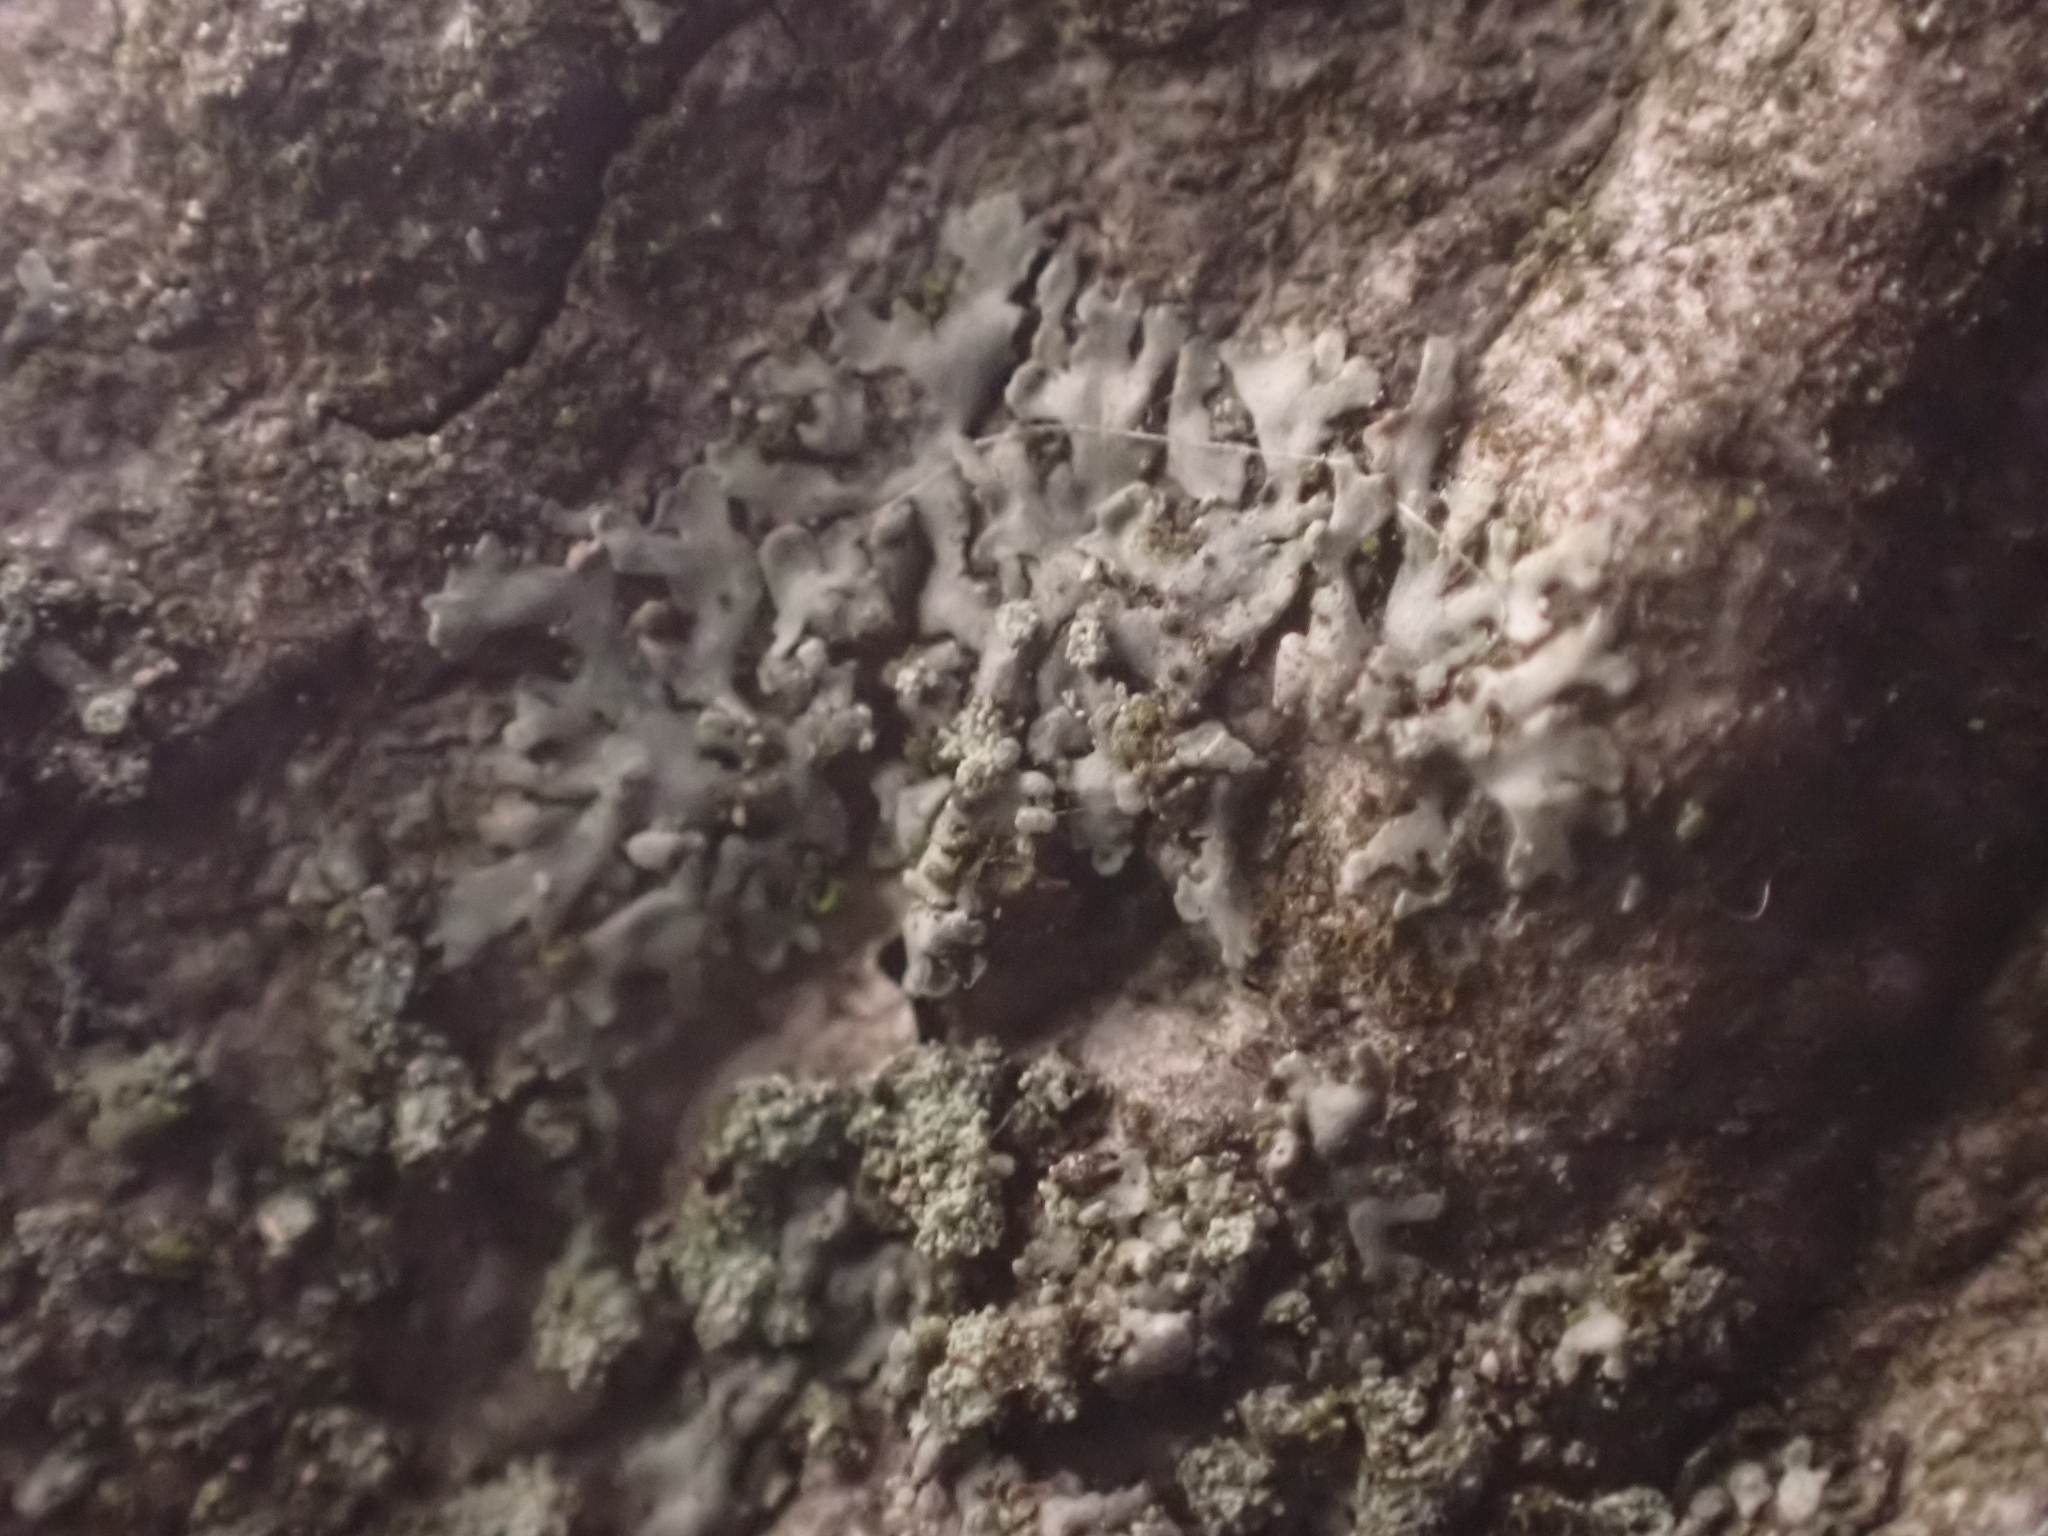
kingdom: Fungi
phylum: Ascomycota
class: Lecanoromycetes
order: Caliciales
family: Physciaceae
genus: Hyperphyscia
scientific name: Hyperphyscia adglutinata
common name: Grainy shadow-crust lichen
